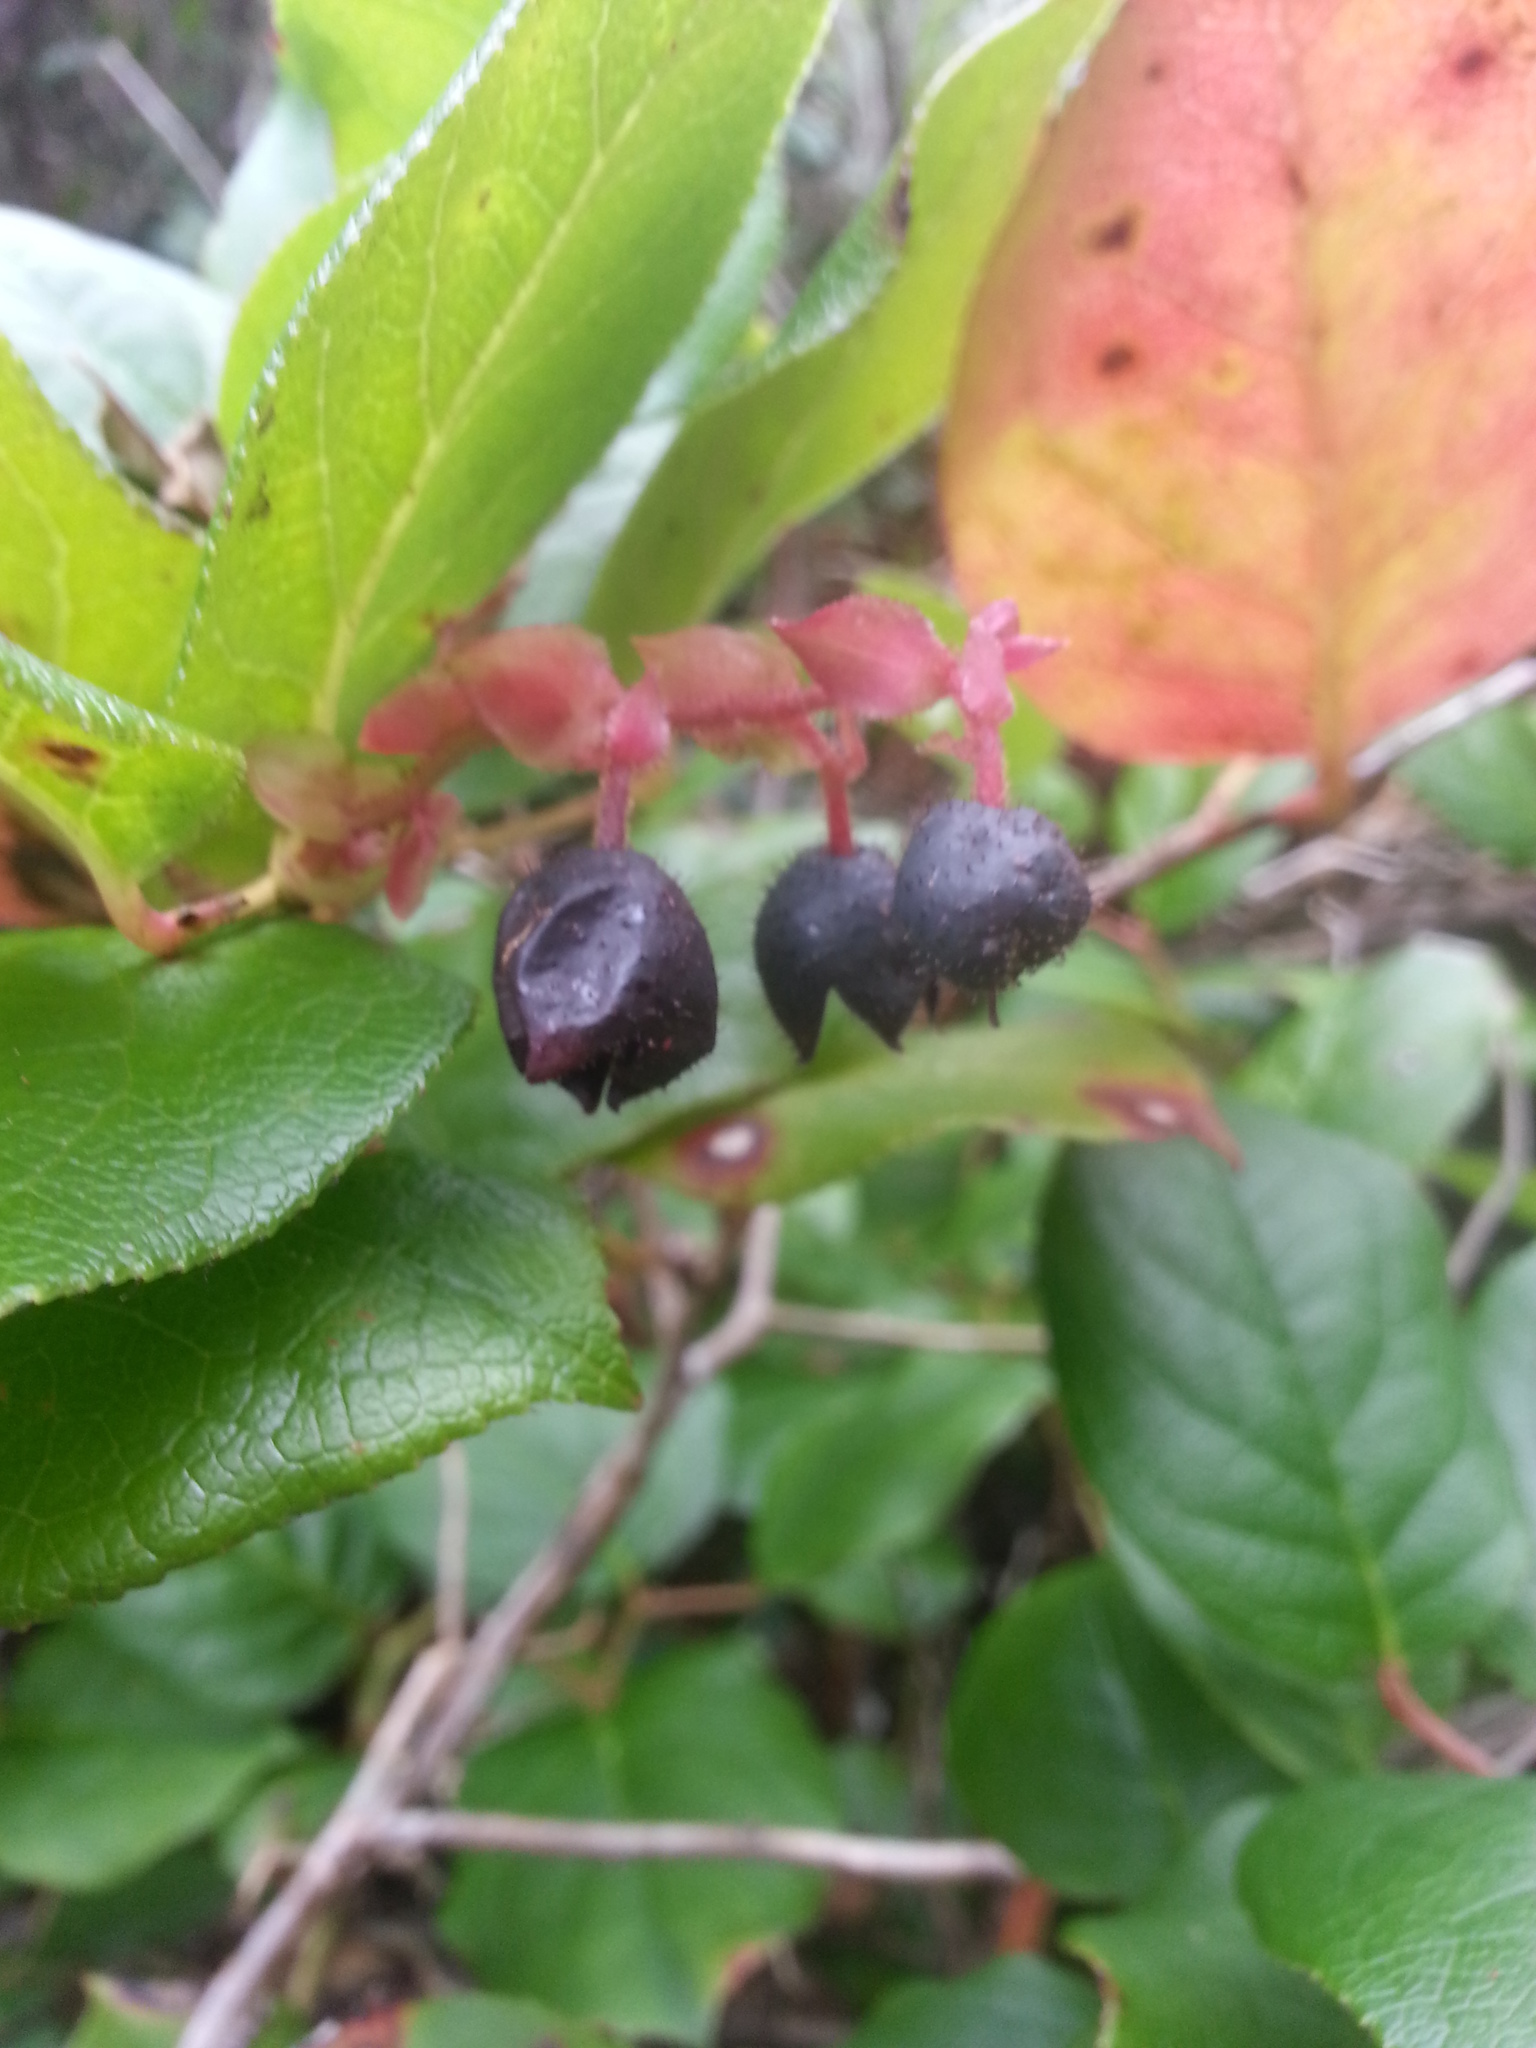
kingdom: Plantae
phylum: Tracheophyta
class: Magnoliopsida
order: Ericales
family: Ericaceae
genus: Gaultheria
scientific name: Gaultheria shallon
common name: Shallon
